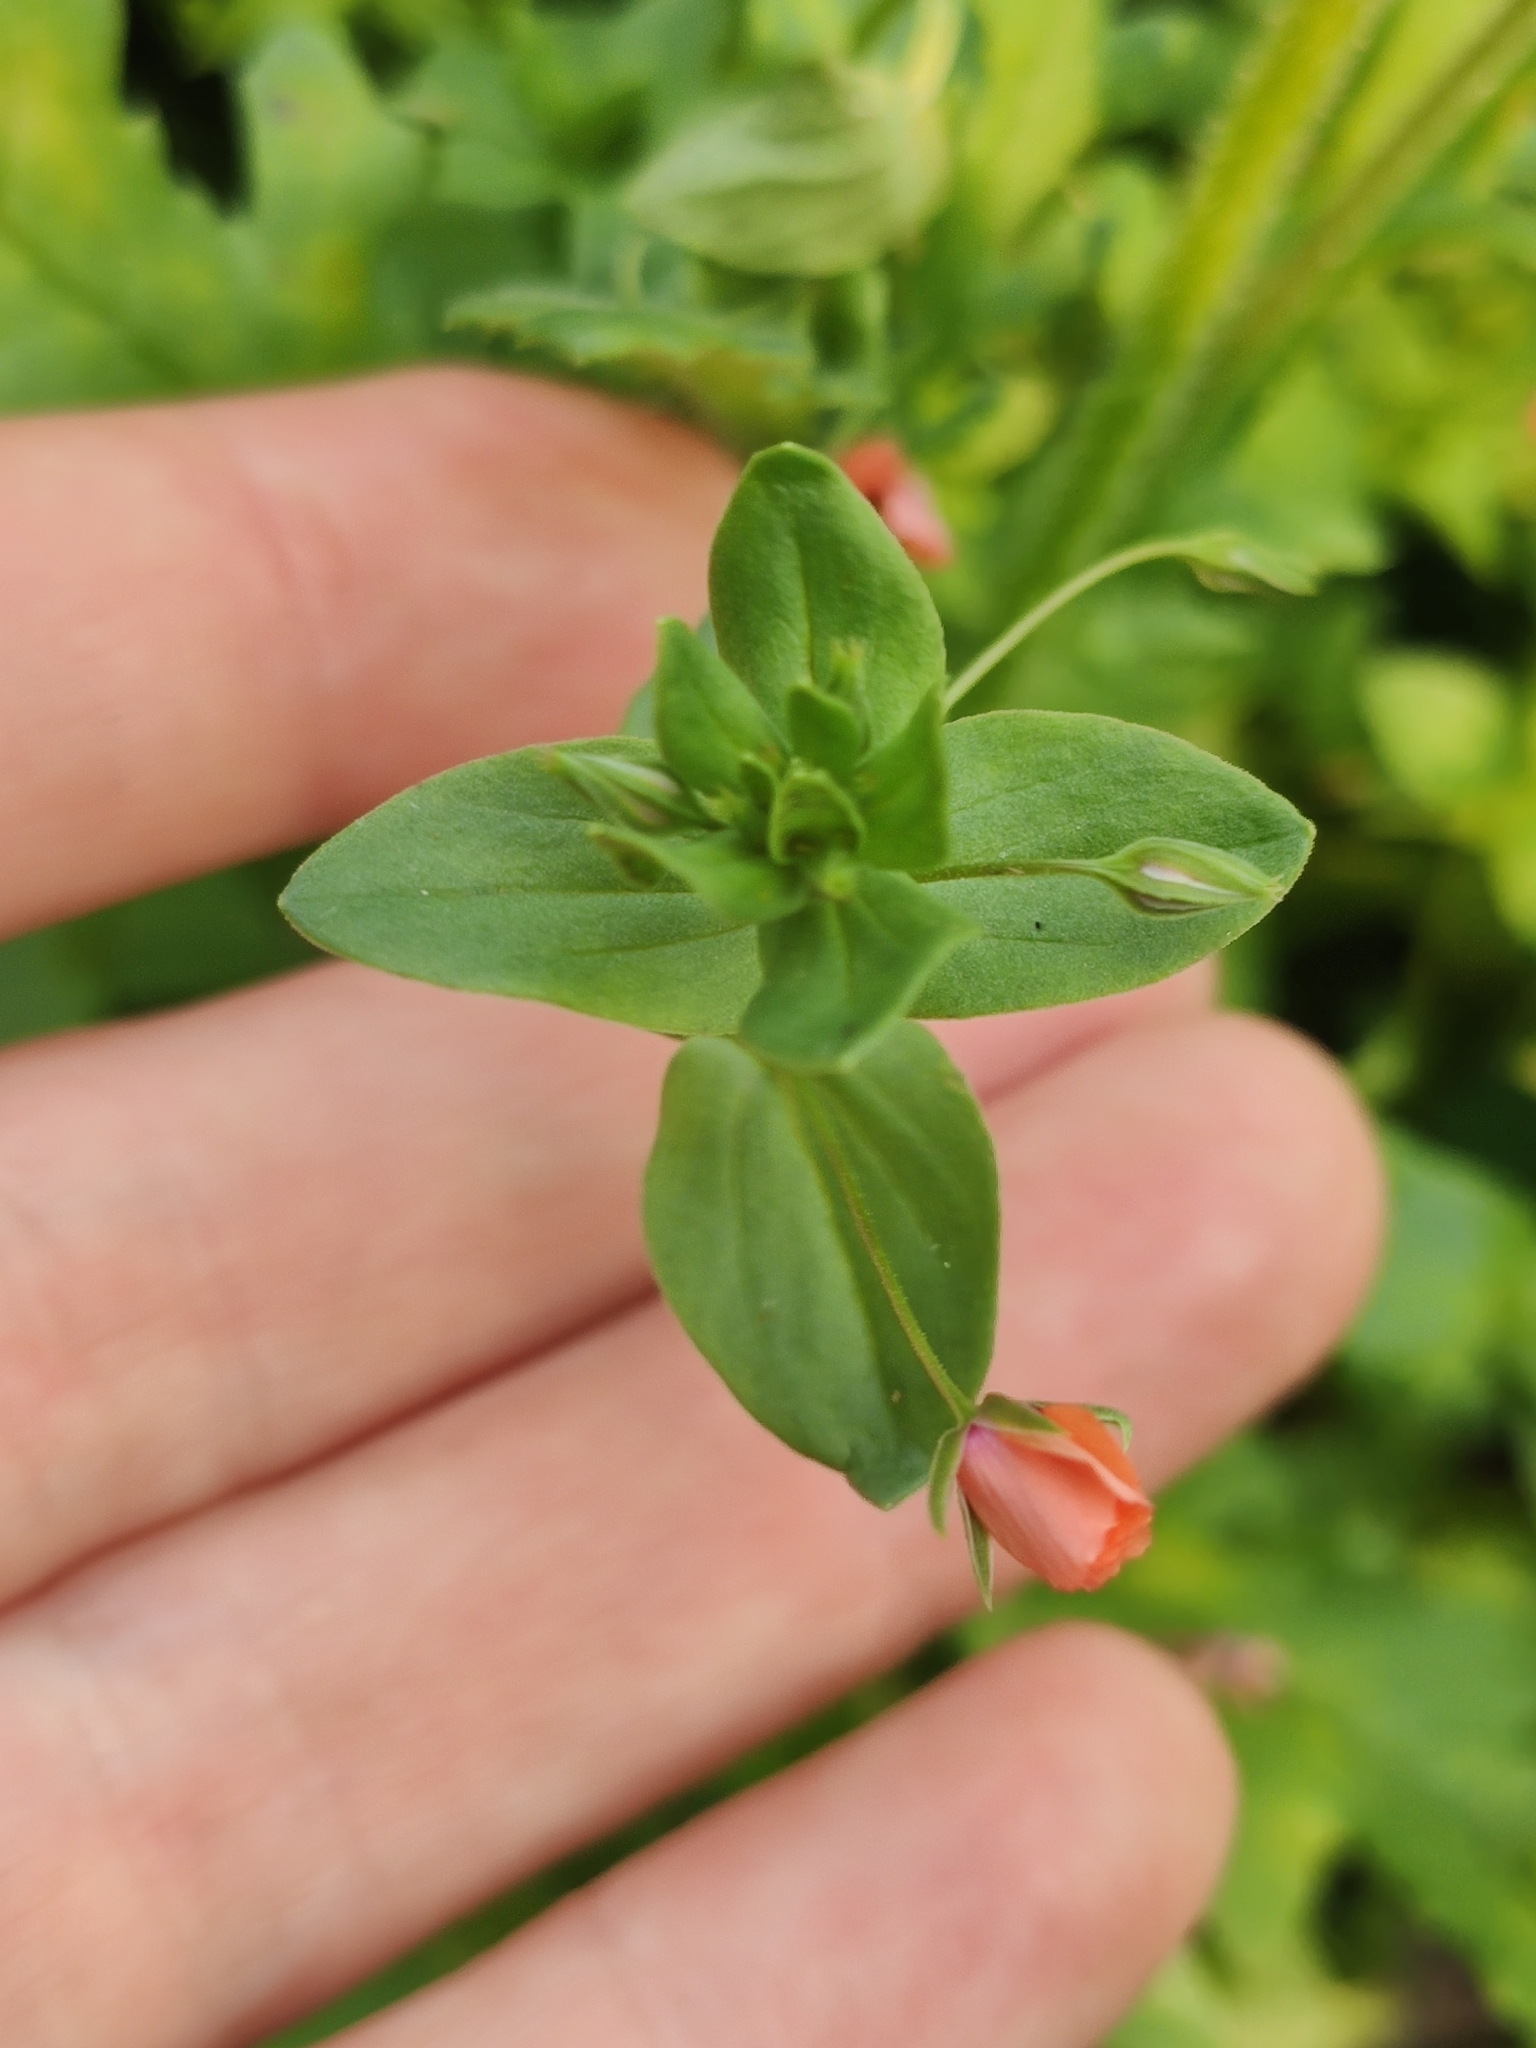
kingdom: Plantae
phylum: Tracheophyta
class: Magnoliopsida
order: Ericales
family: Primulaceae
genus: Lysimachia
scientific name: Lysimachia arvensis
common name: Scarlet pimpernel
